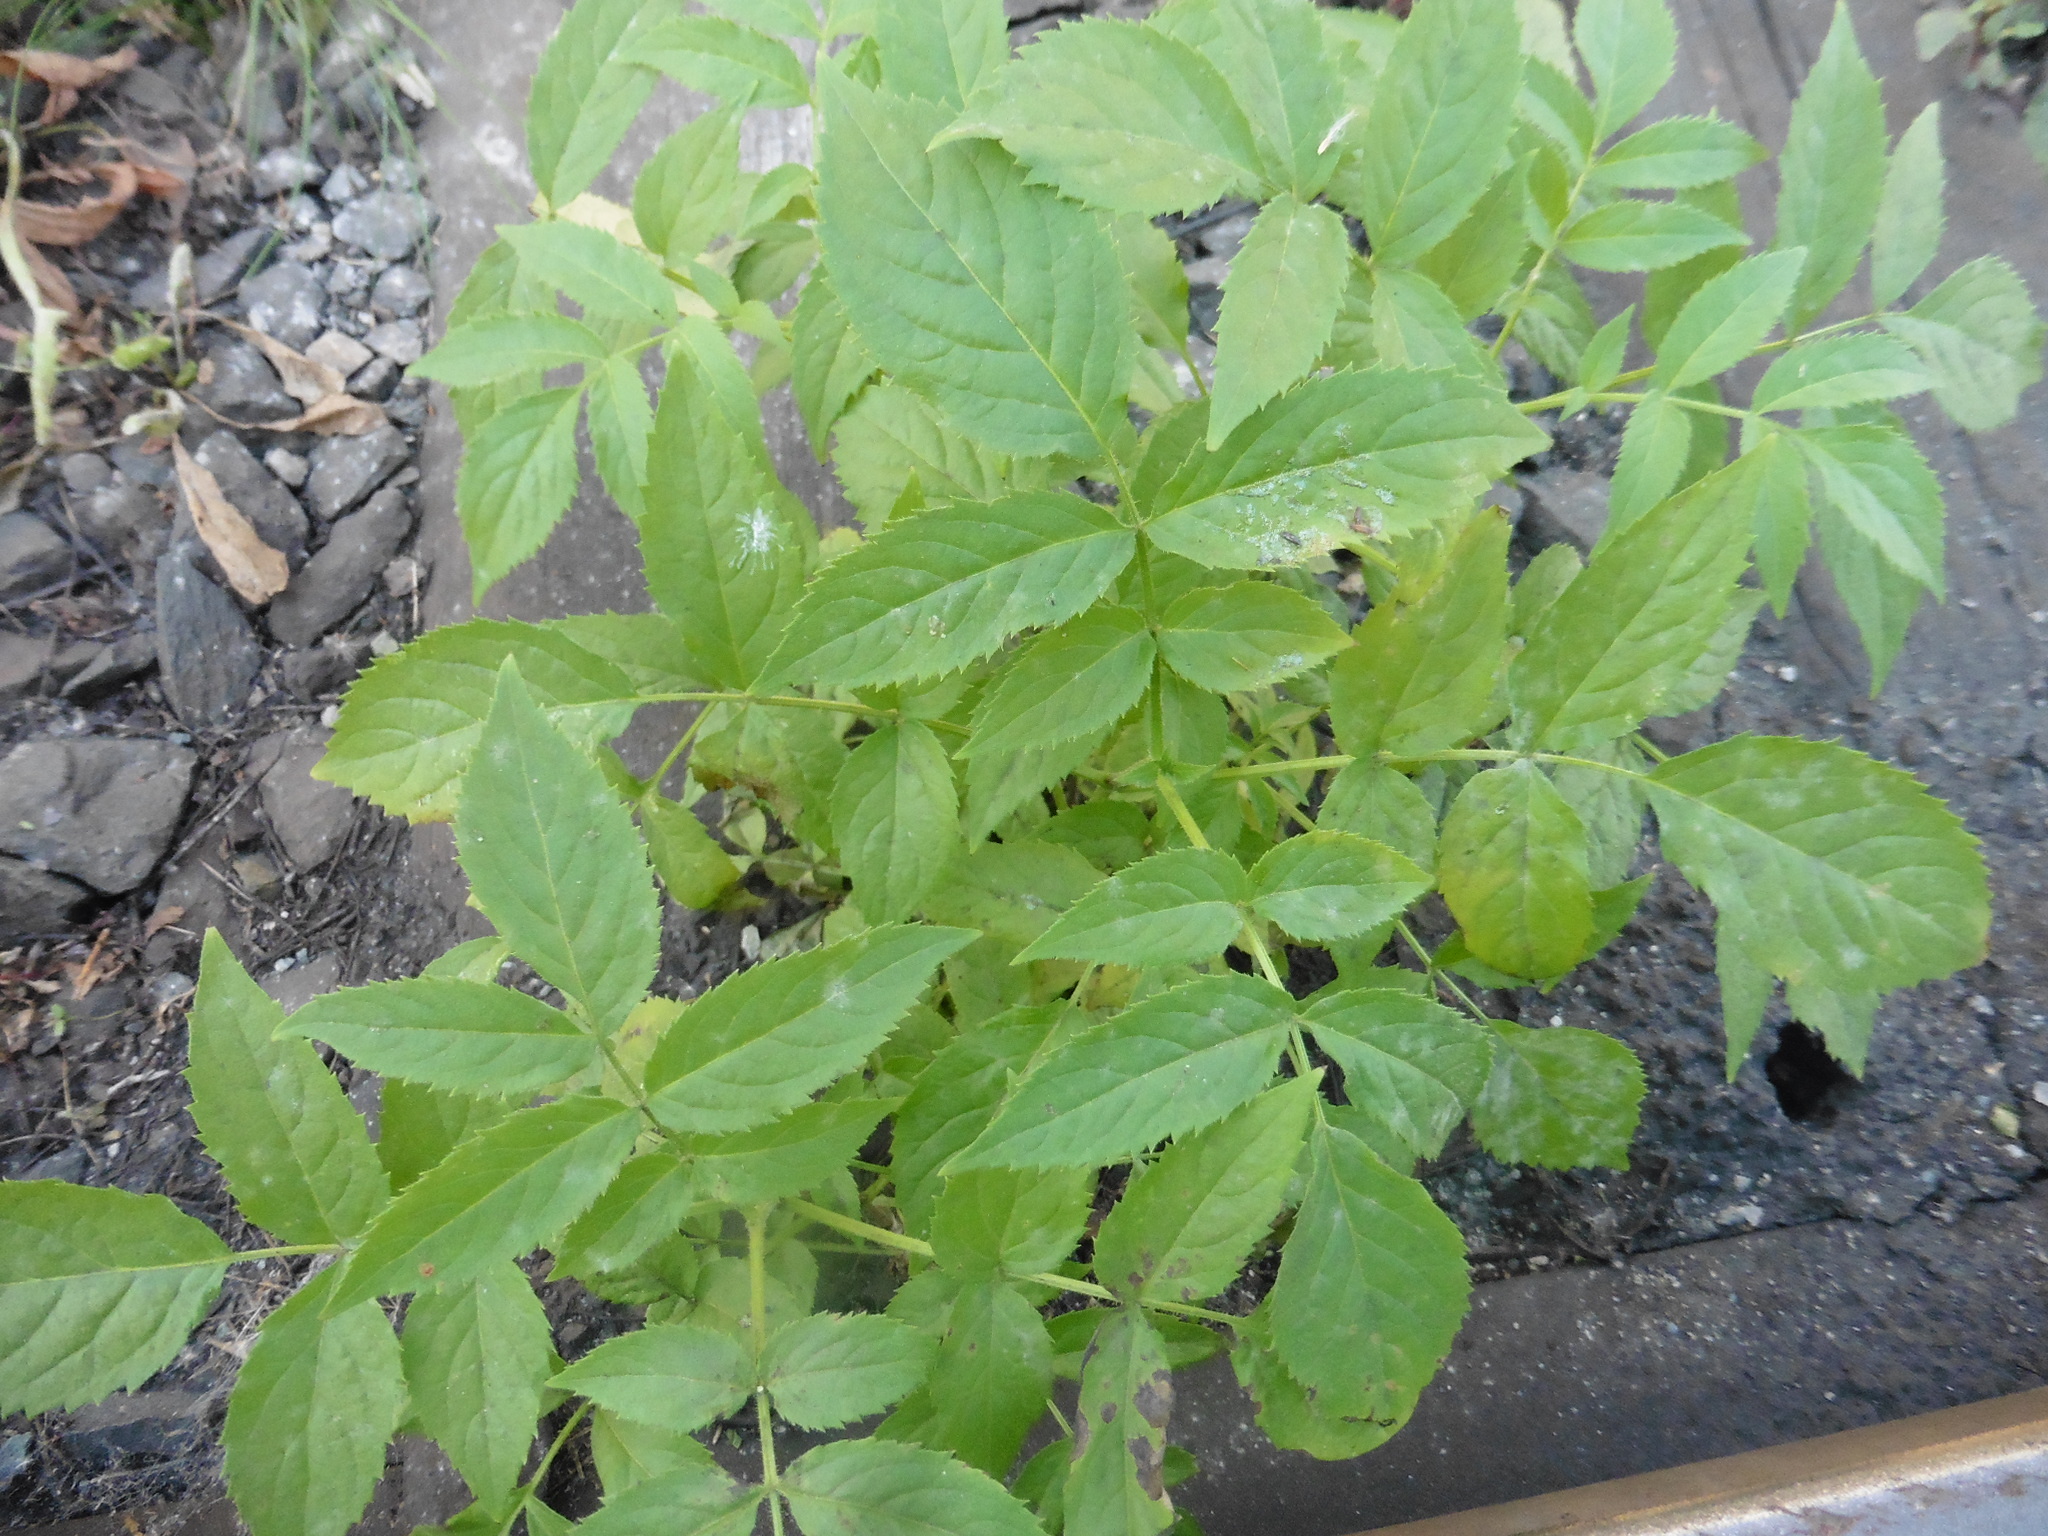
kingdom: Plantae
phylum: Tracheophyta
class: Magnoliopsida
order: Dipsacales
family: Viburnaceae
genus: Sambucus
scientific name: Sambucus racemosa
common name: Red-berried elder
